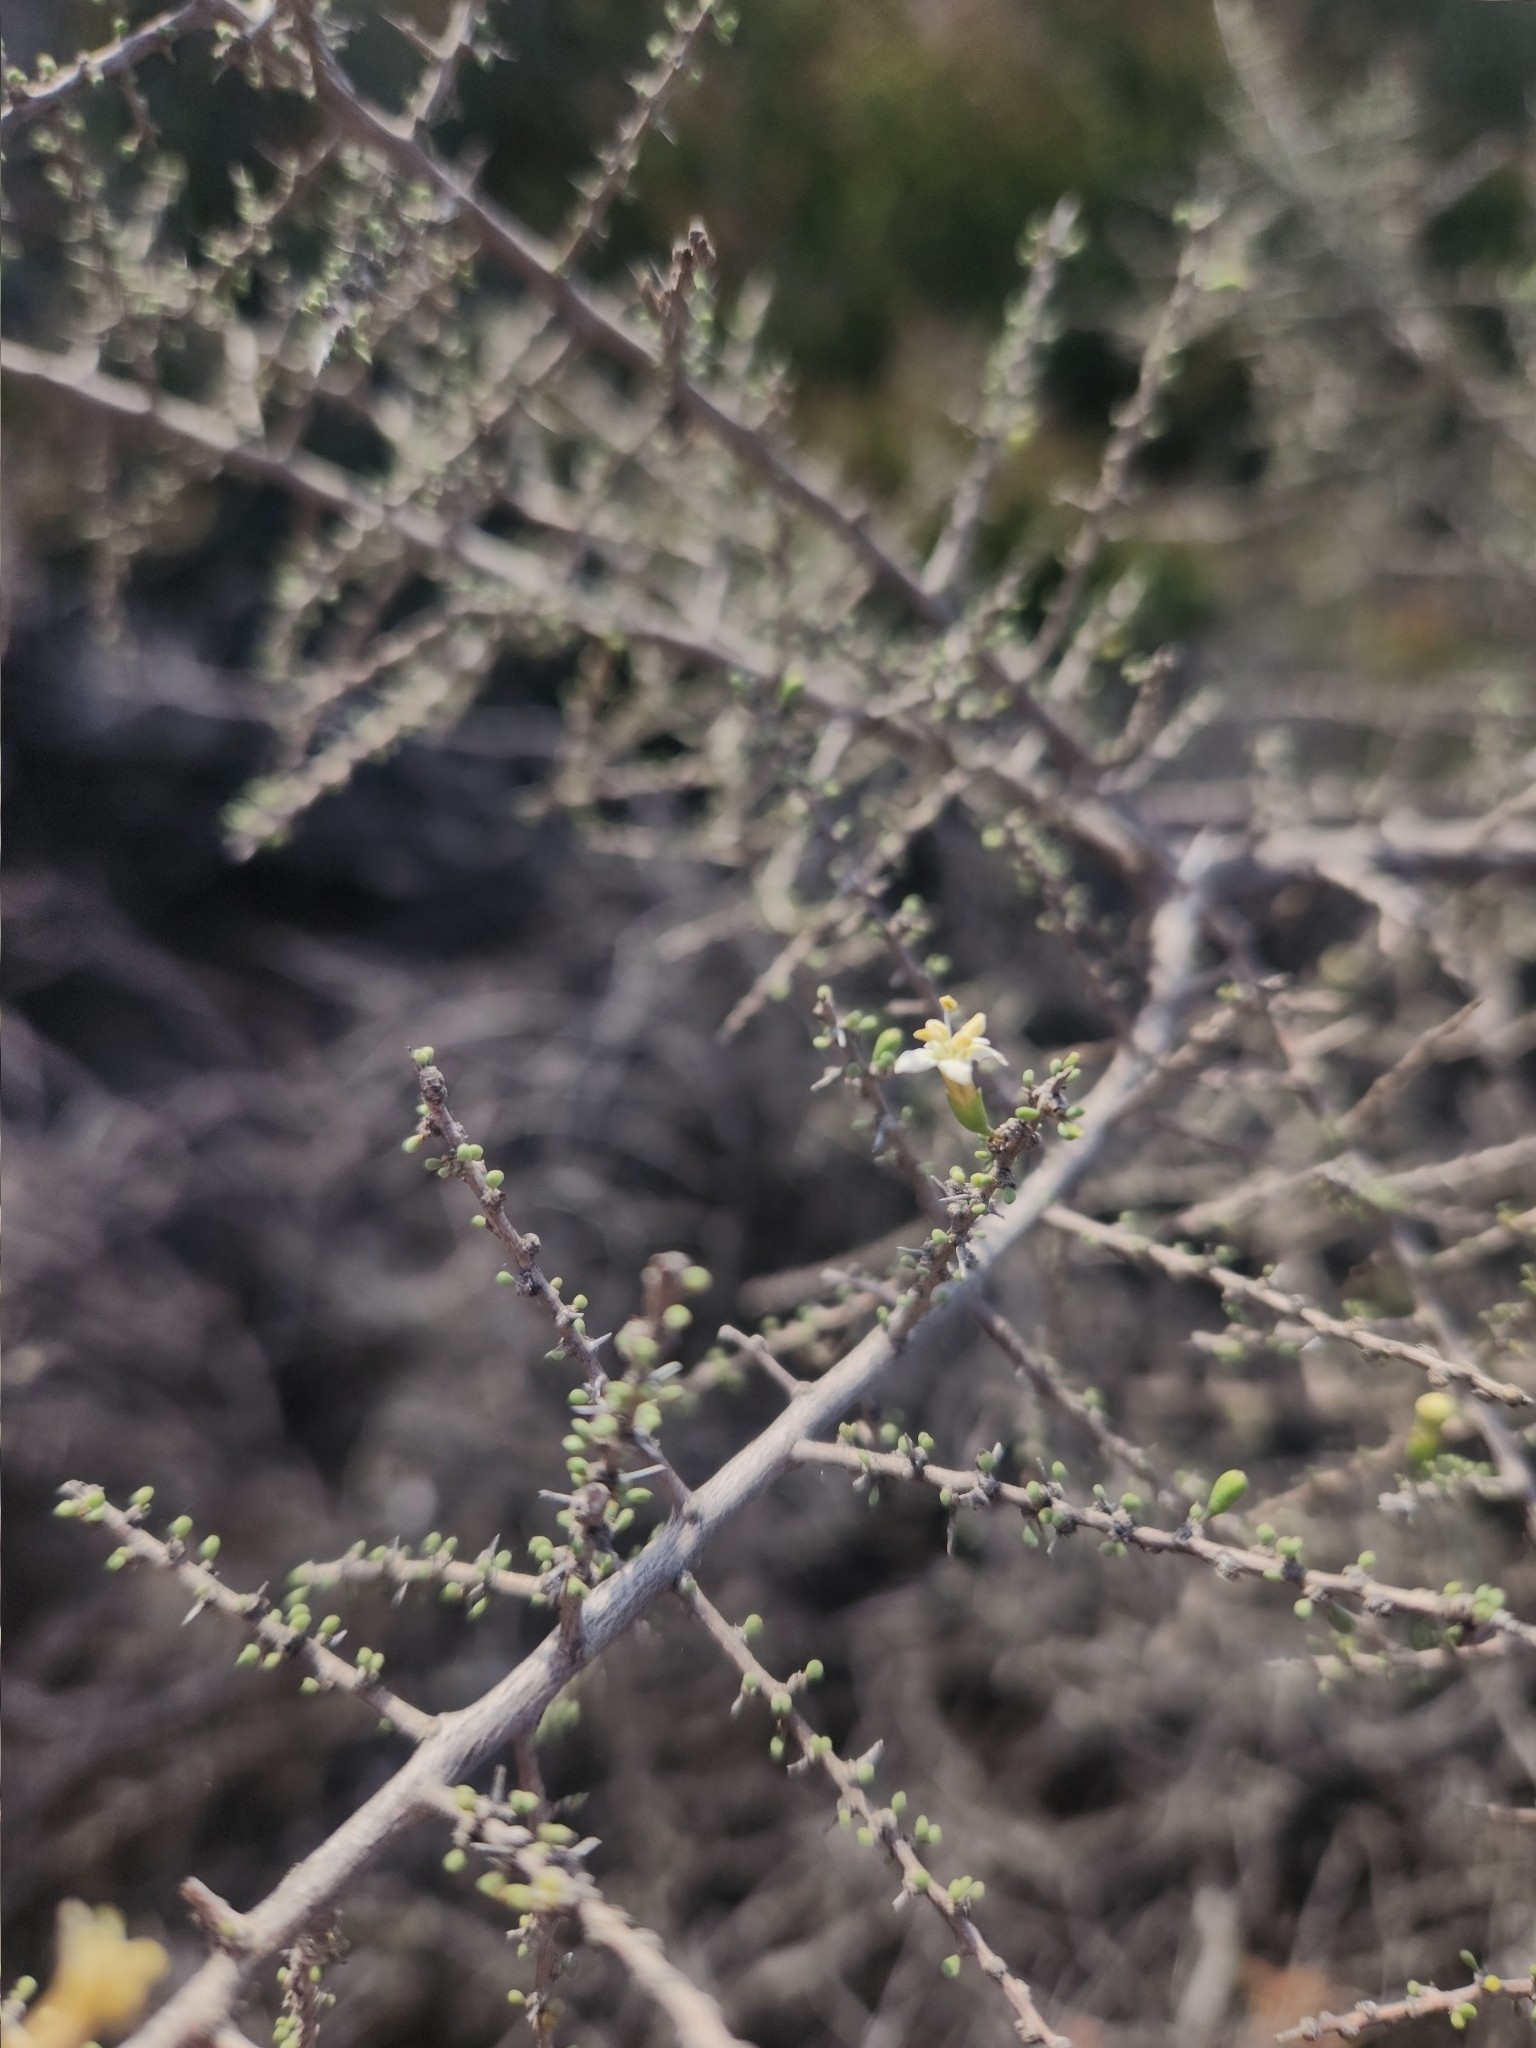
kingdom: Plantae
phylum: Tracheophyta
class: Magnoliopsida
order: Solanales
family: Solanaceae
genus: Lycium
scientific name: Lycium infaustum
